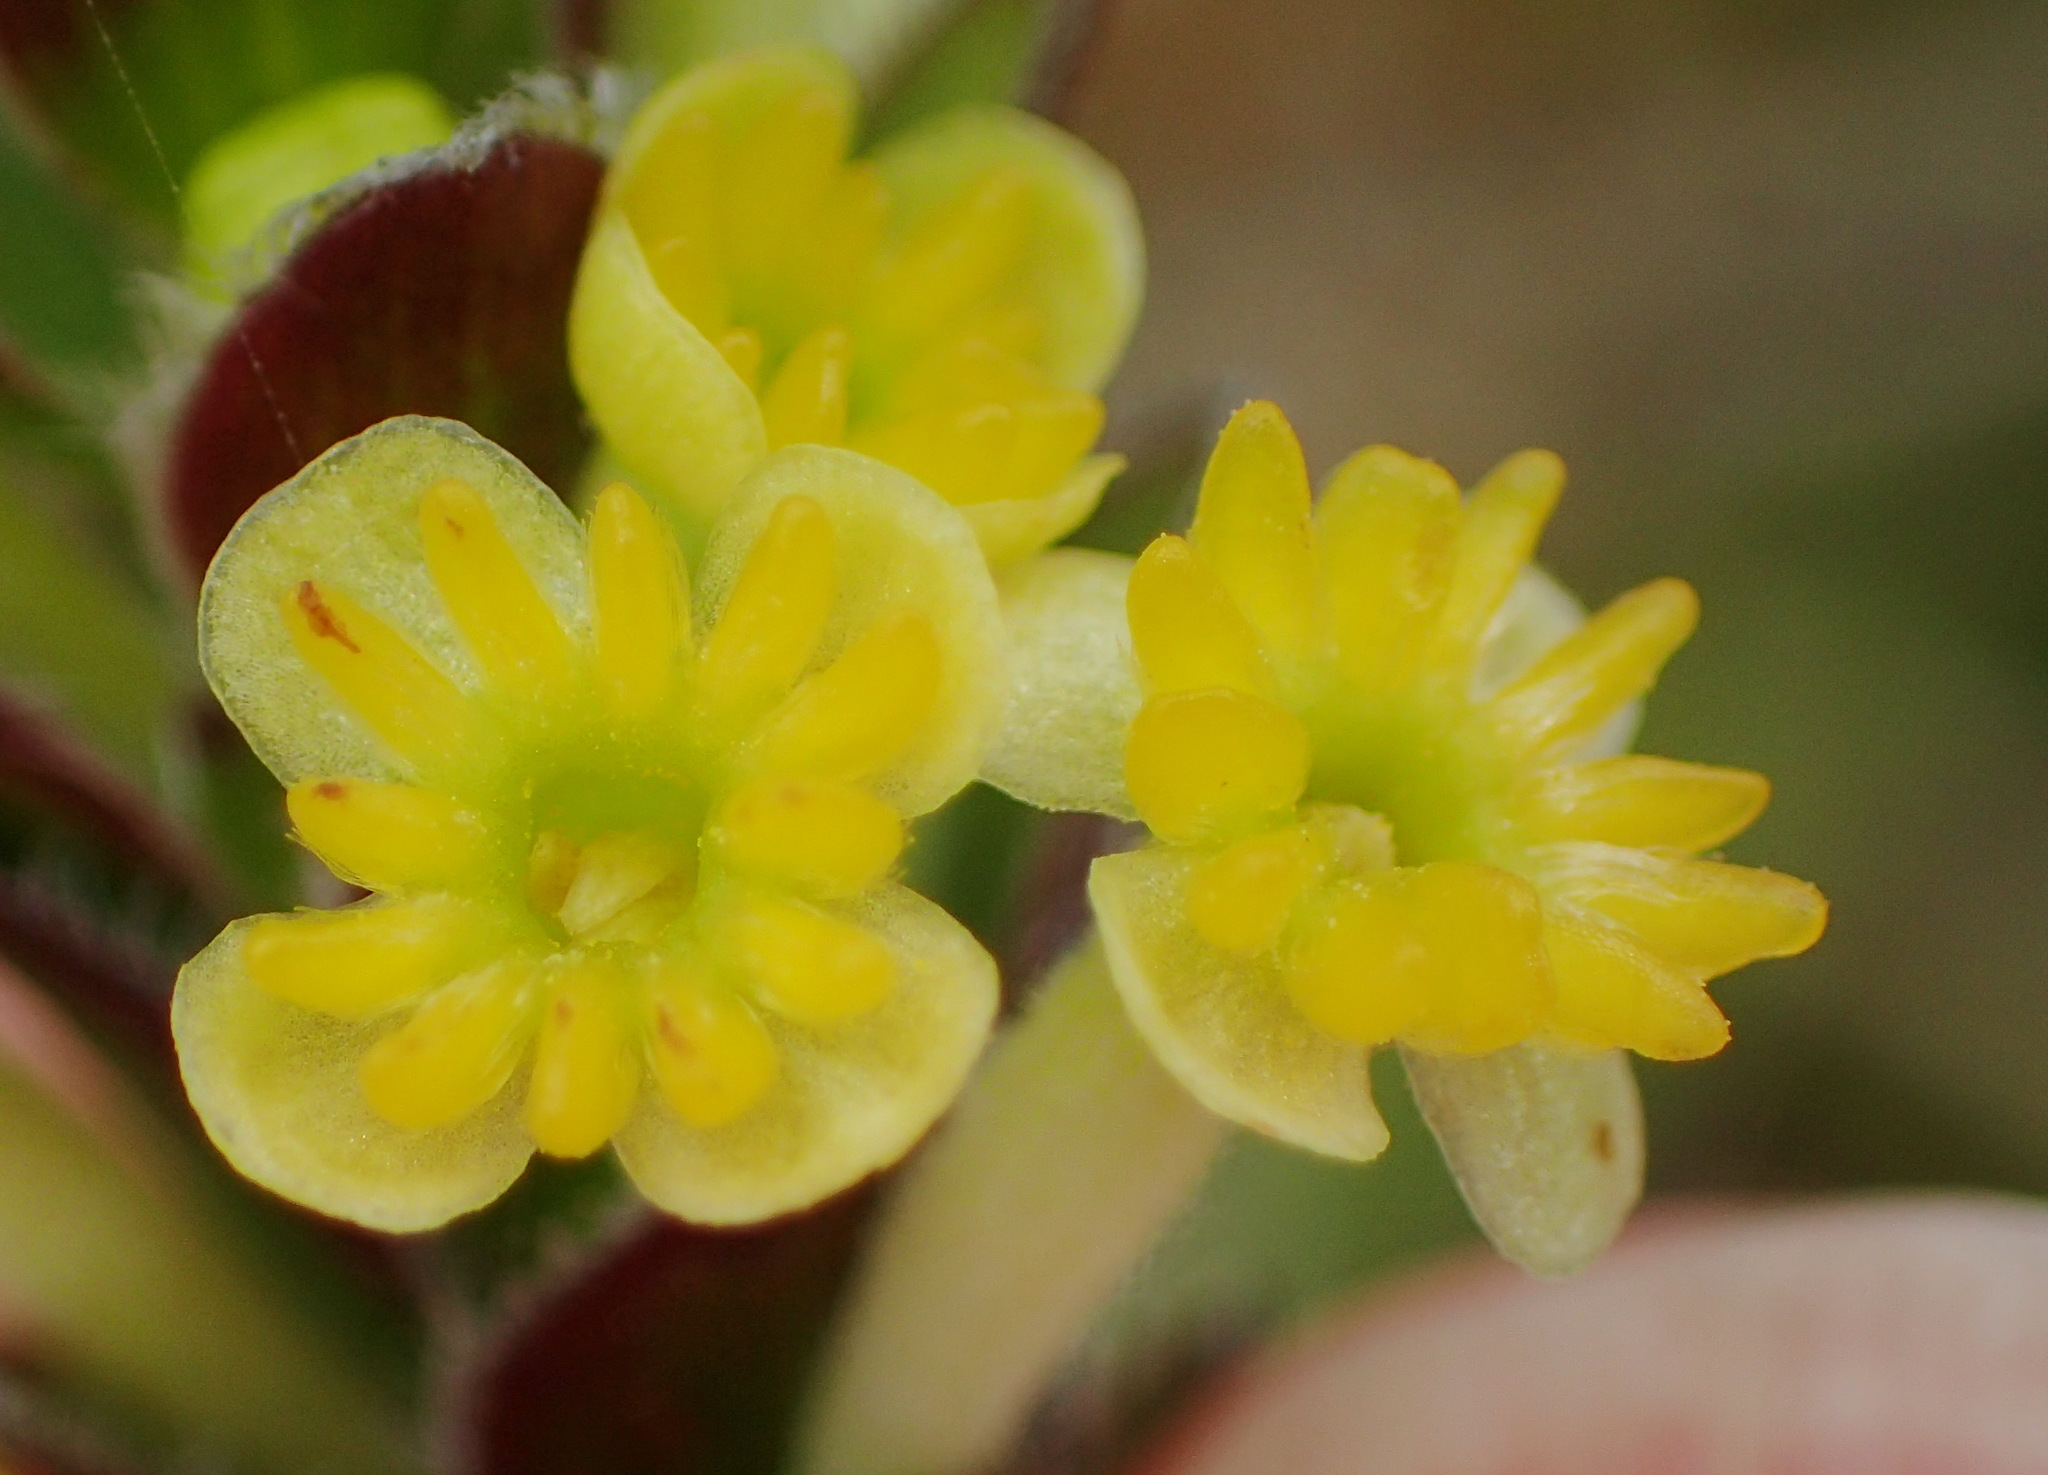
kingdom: Plantae
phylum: Tracheophyta
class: Magnoliopsida
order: Malvales
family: Thymelaeaceae
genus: Struthiola
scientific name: Struthiola argentea
